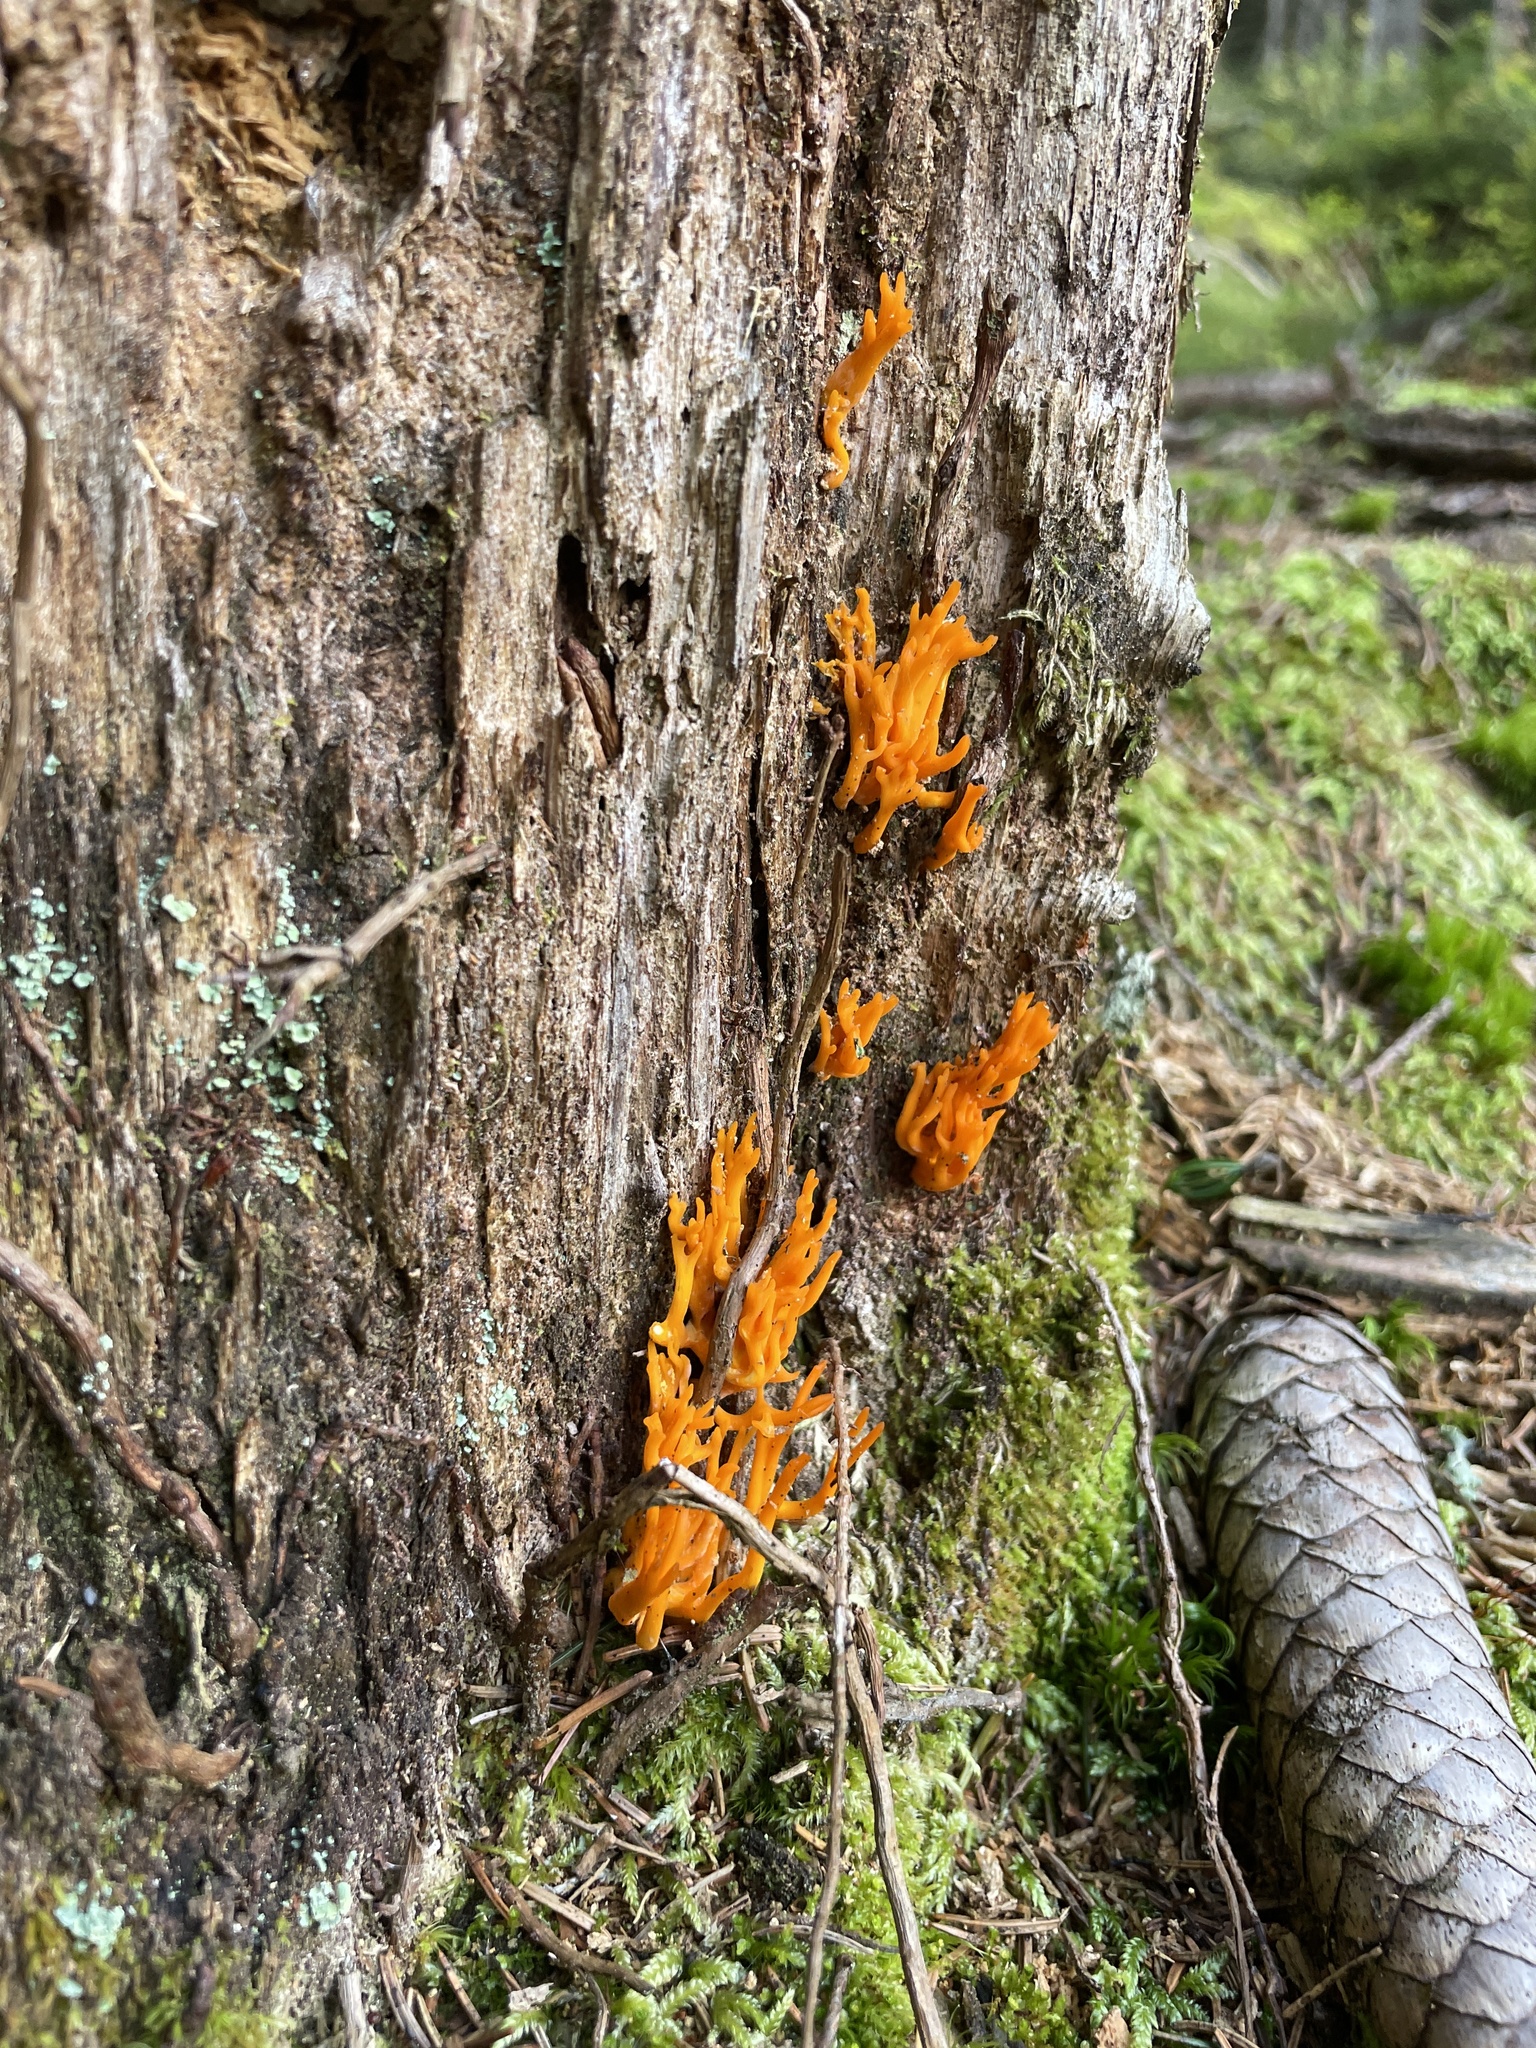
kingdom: Fungi
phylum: Basidiomycota
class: Dacrymycetes
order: Dacrymycetales
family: Dacrymycetaceae
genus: Calocera
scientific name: Calocera viscosa
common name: Yellow stagshorn
